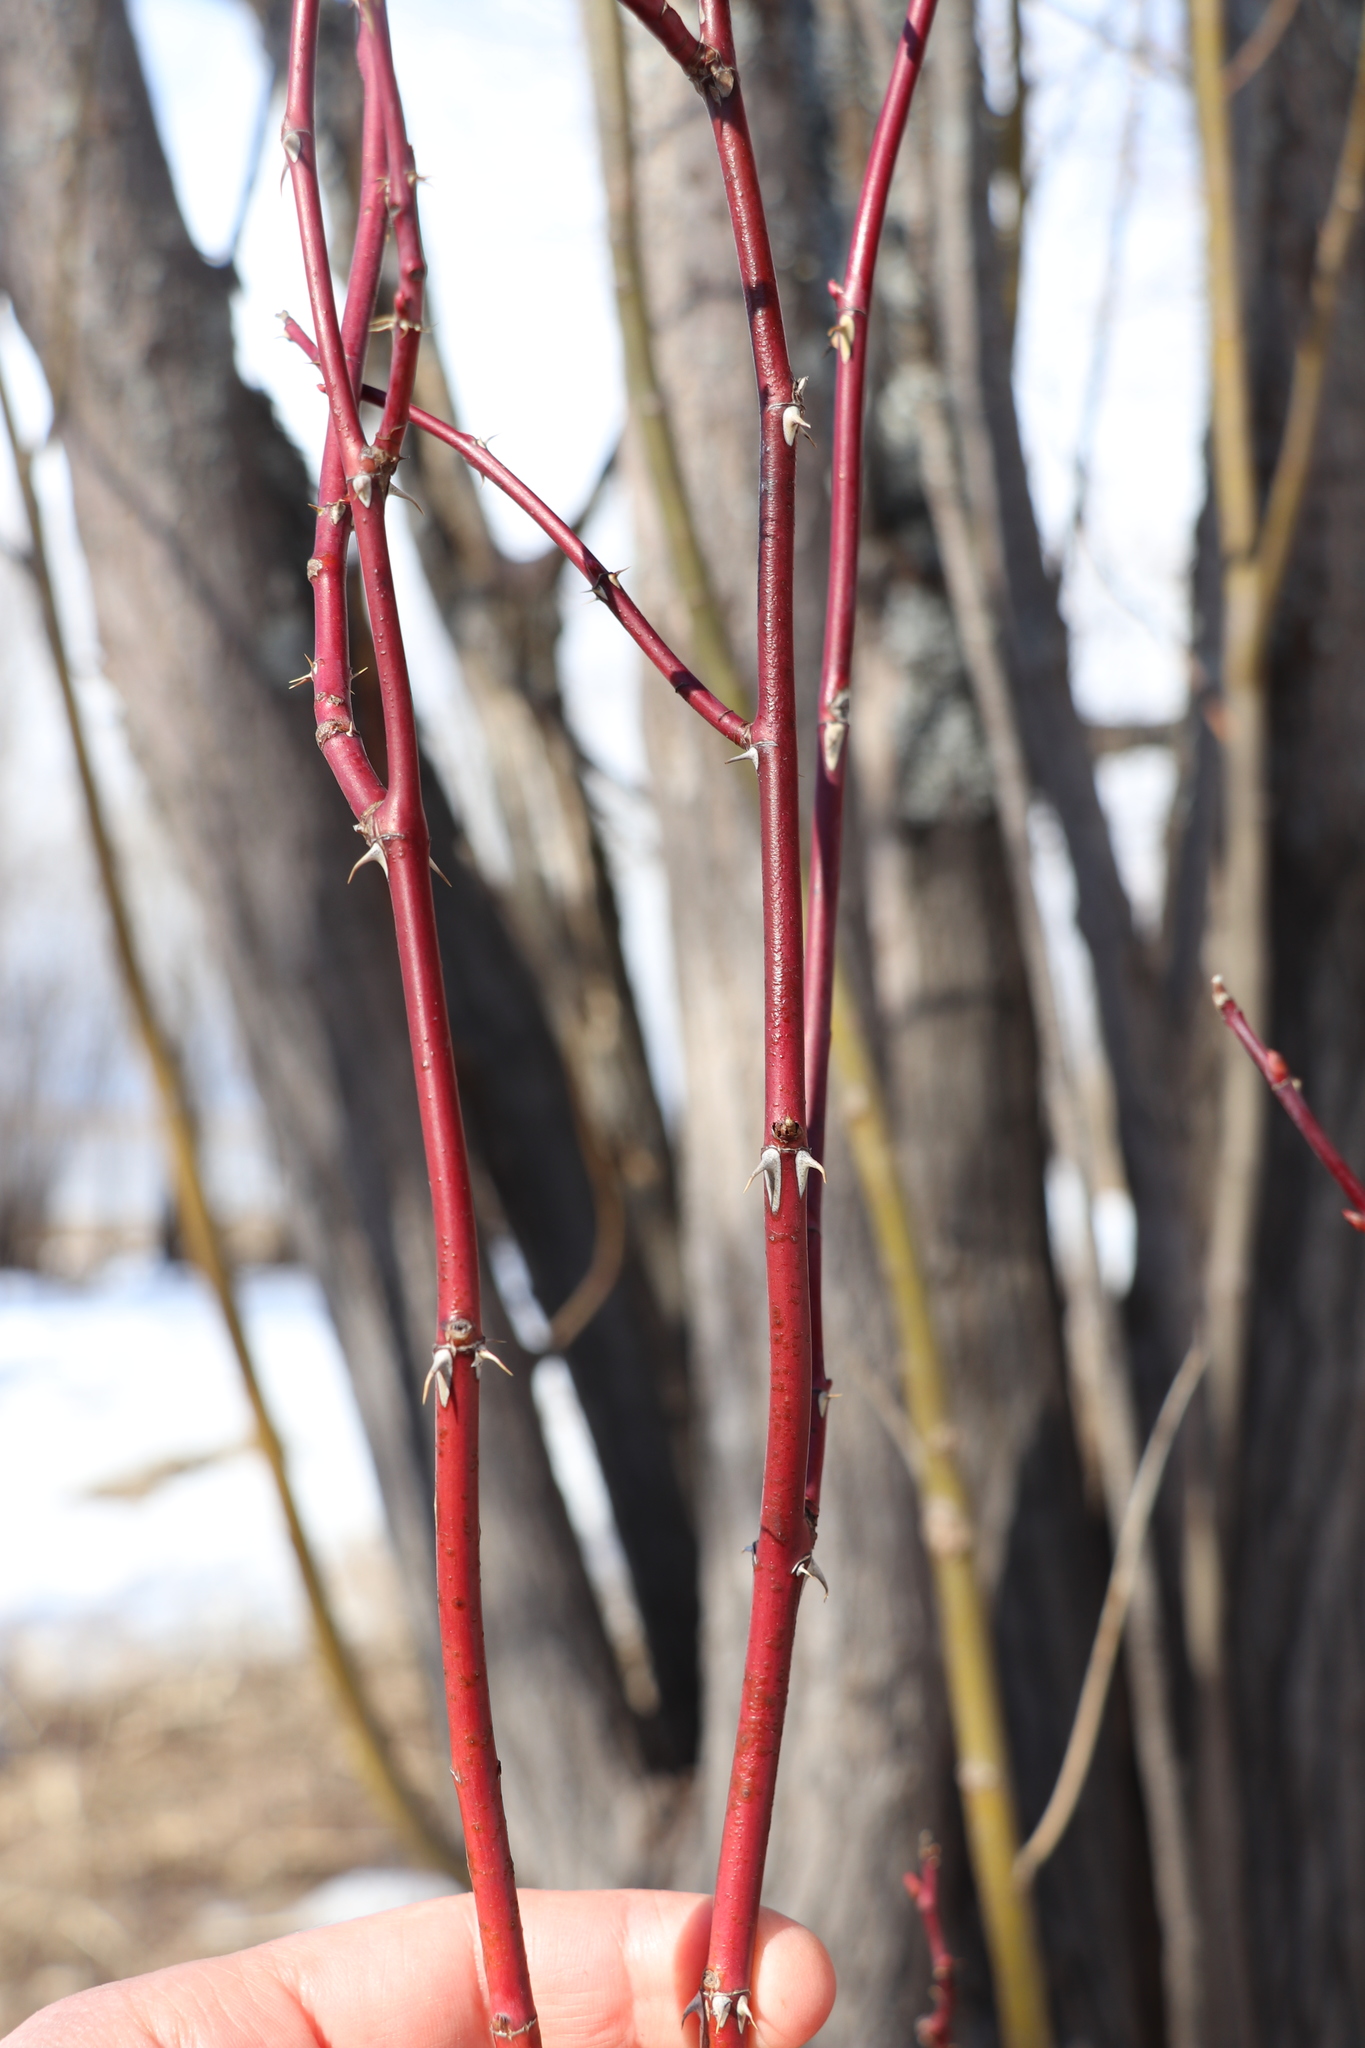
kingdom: Plantae
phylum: Tracheophyta
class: Magnoliopsida
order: Rosales
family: Rosaceae
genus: Rosa
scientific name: Rosa majalis
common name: Cinnamon rose
